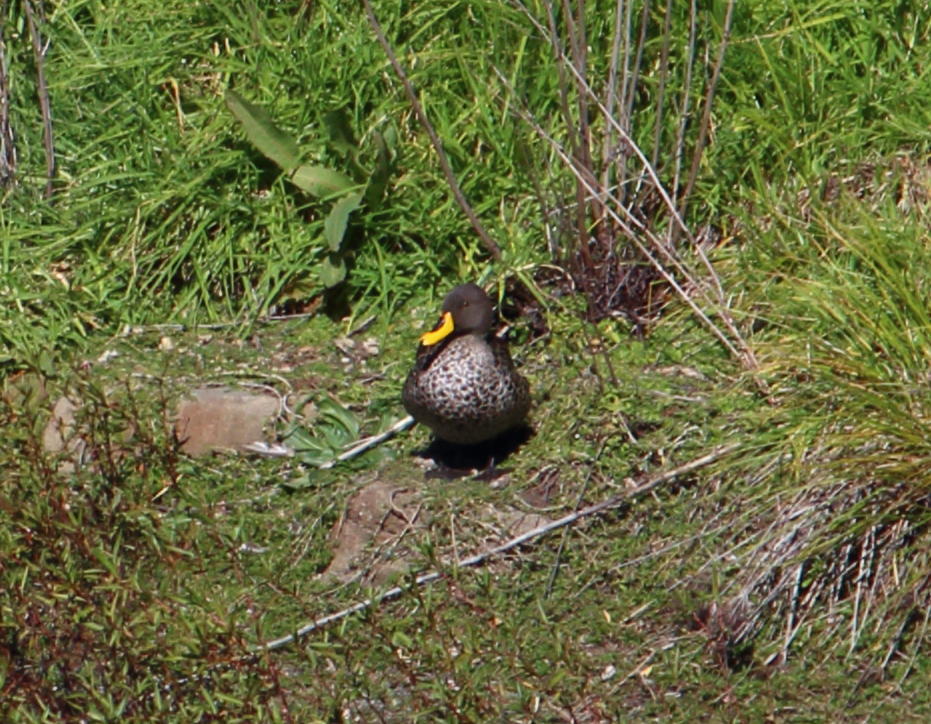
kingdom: Animalia
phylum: Chordata
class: Aves
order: Anseriformes
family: Anatidae
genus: Anas
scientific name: Anas undulata
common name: Yellow-billed duck
